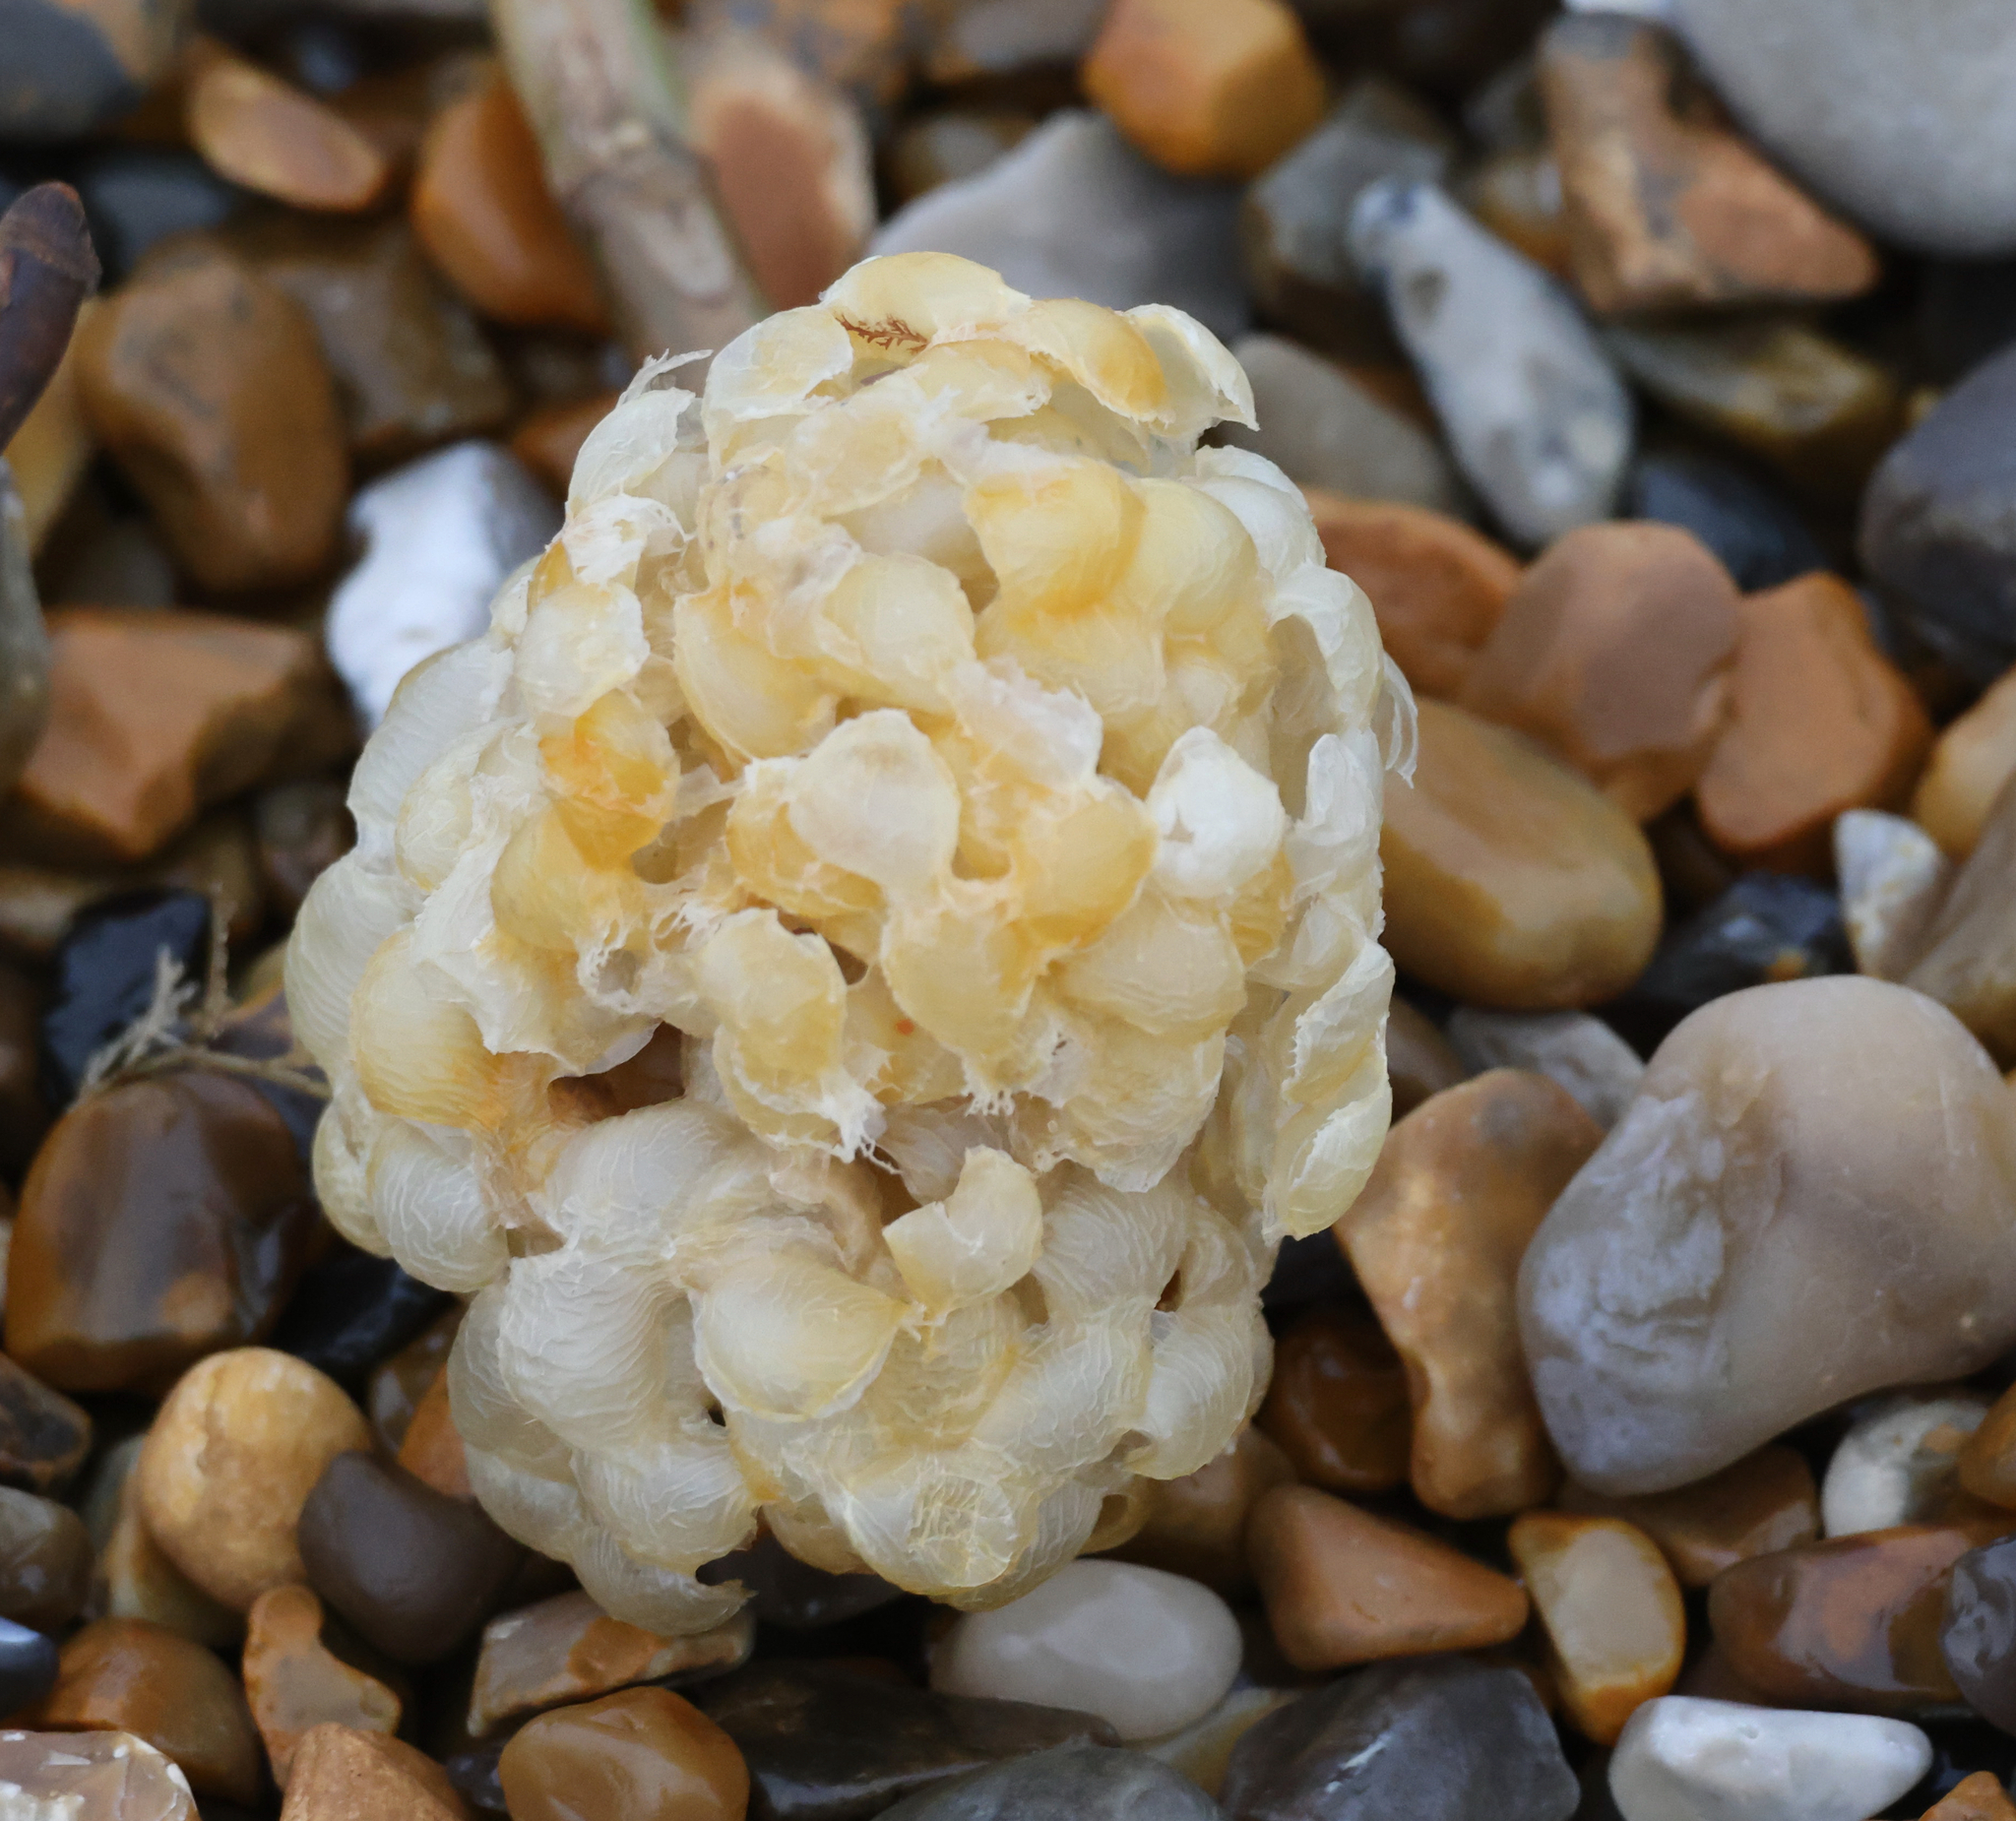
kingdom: Animalia
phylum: Mollusca
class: Gastropoda
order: Neogastropoda
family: Buccinidae
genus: Buccinum
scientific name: Buccinum undatum
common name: Common whelk
